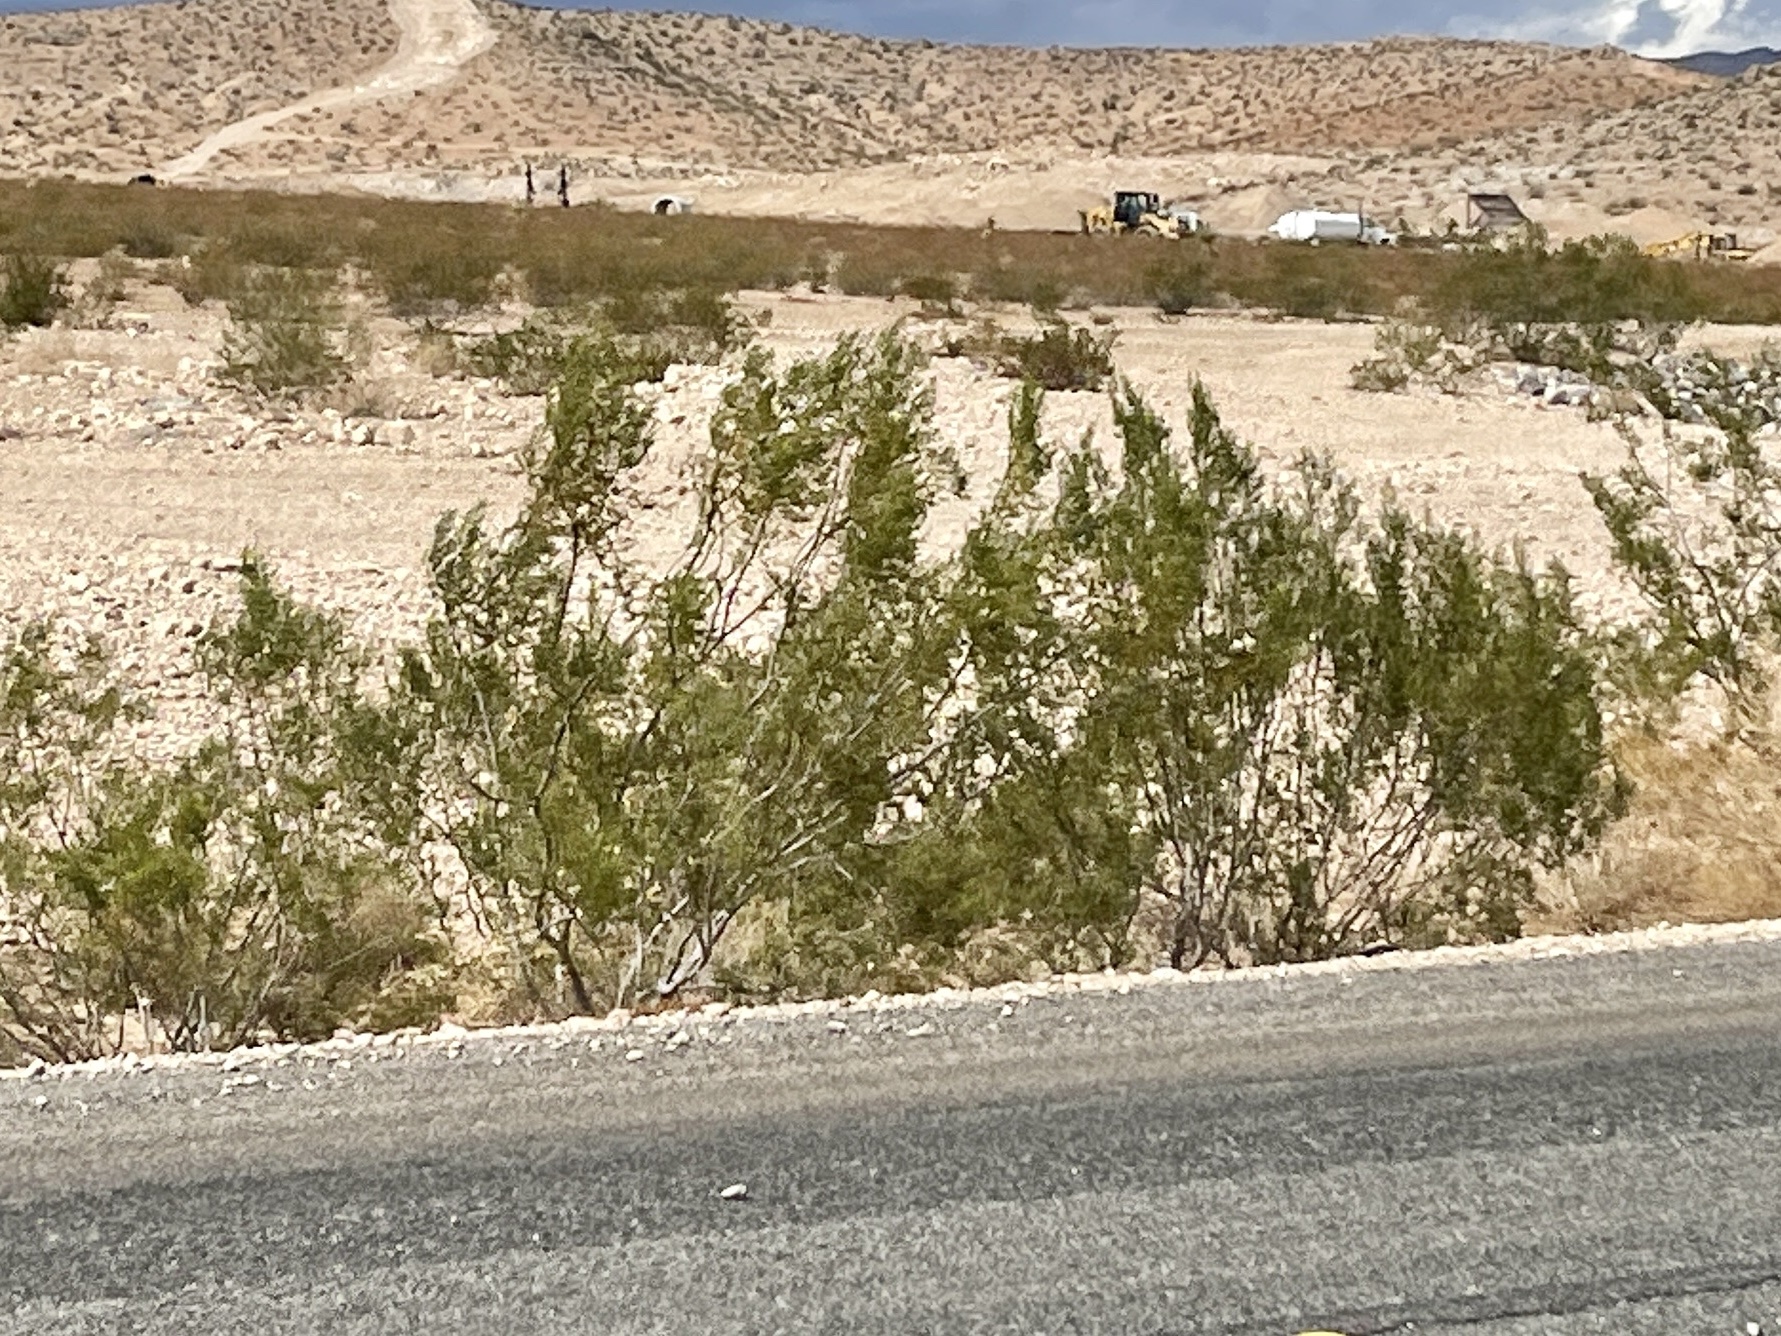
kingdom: Plantae
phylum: Tracheophyta
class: Magnoliopsida
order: Zygophyllales
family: Zygophyllaceae
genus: Larrea
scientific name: Larrea tridentata
